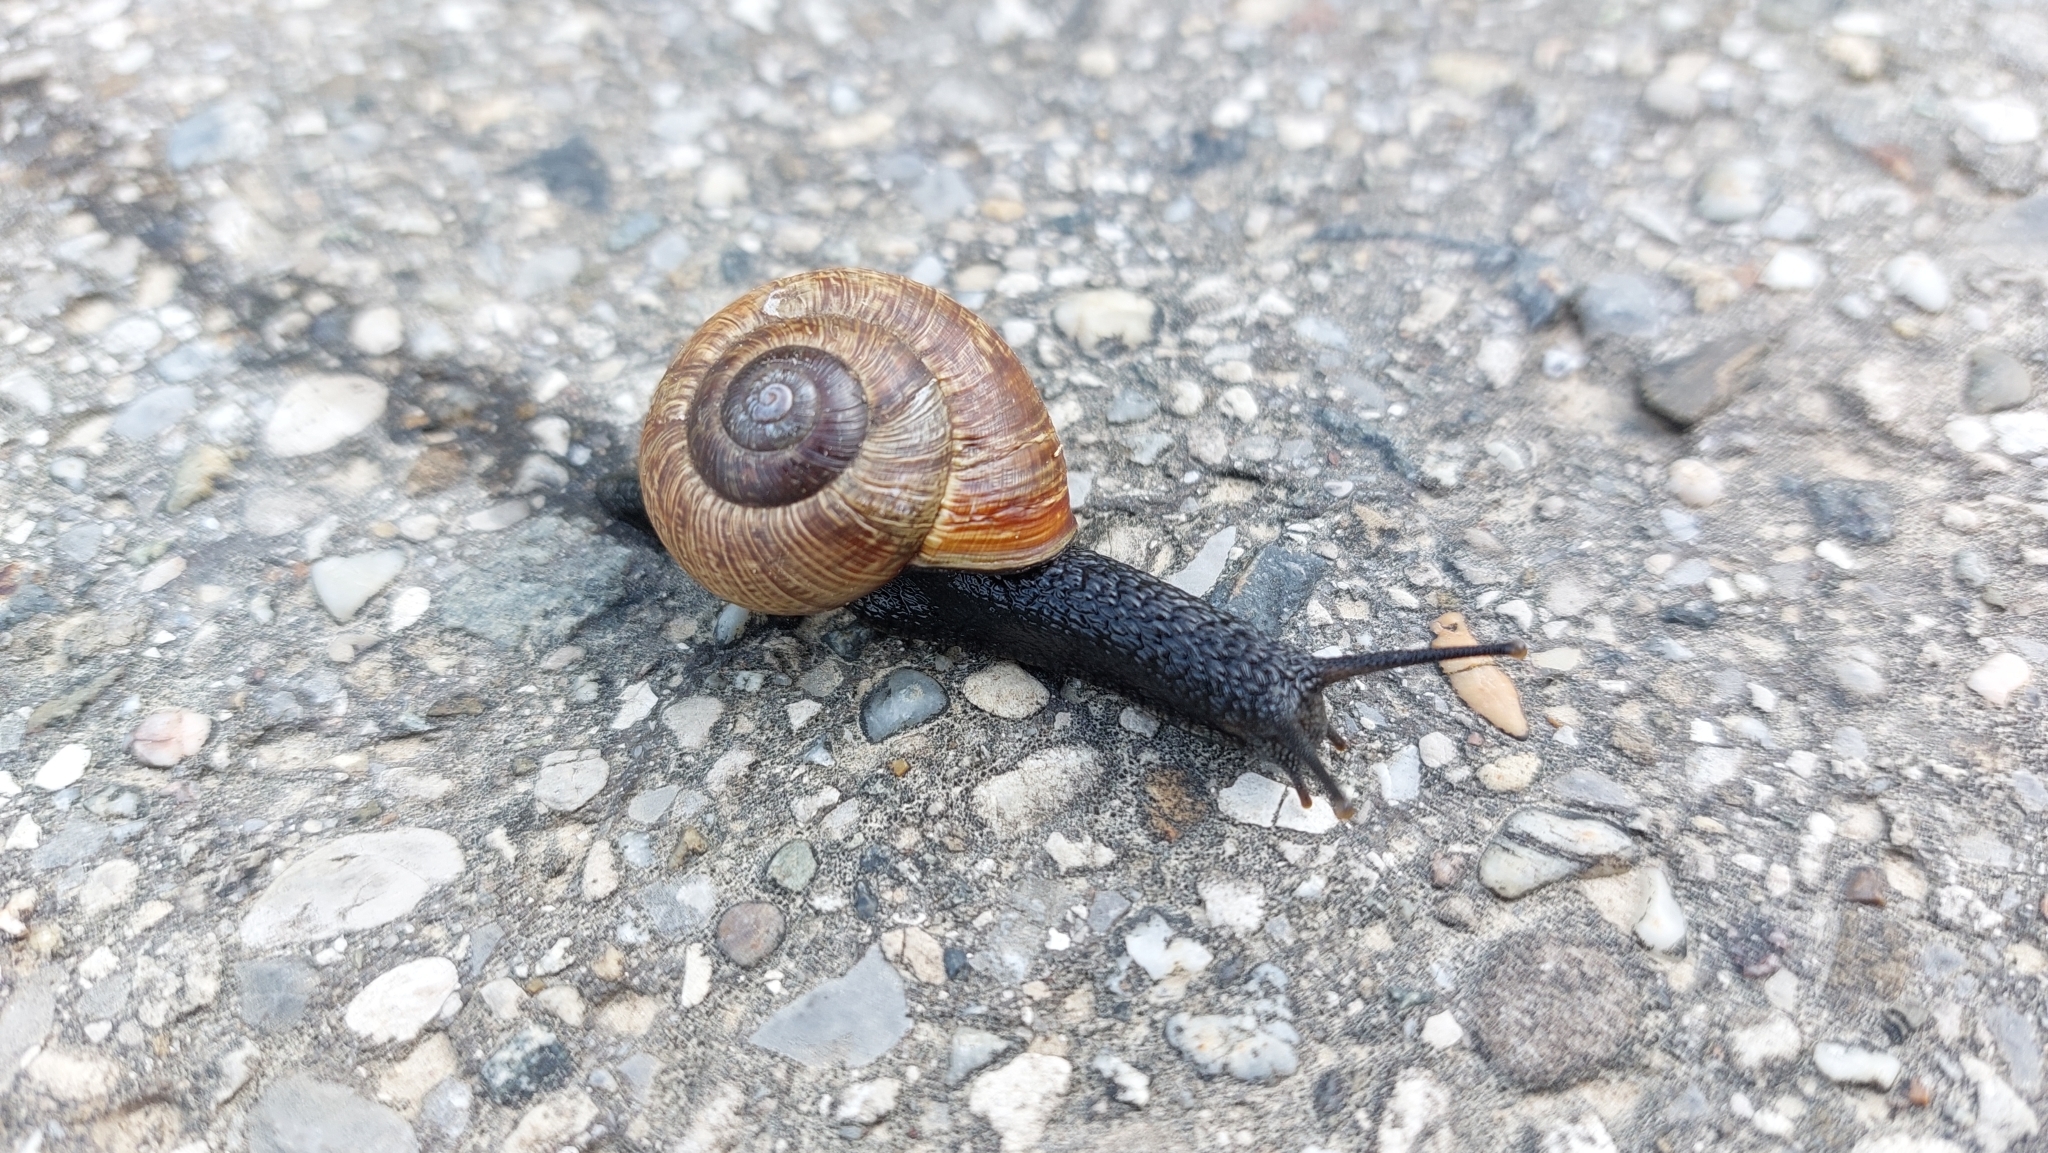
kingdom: Animalia
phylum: Mollusca
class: Gastropoda
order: Stylommatophora
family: Helicidae
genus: Arianta
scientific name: Arianta arbustorum
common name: Copse snail
